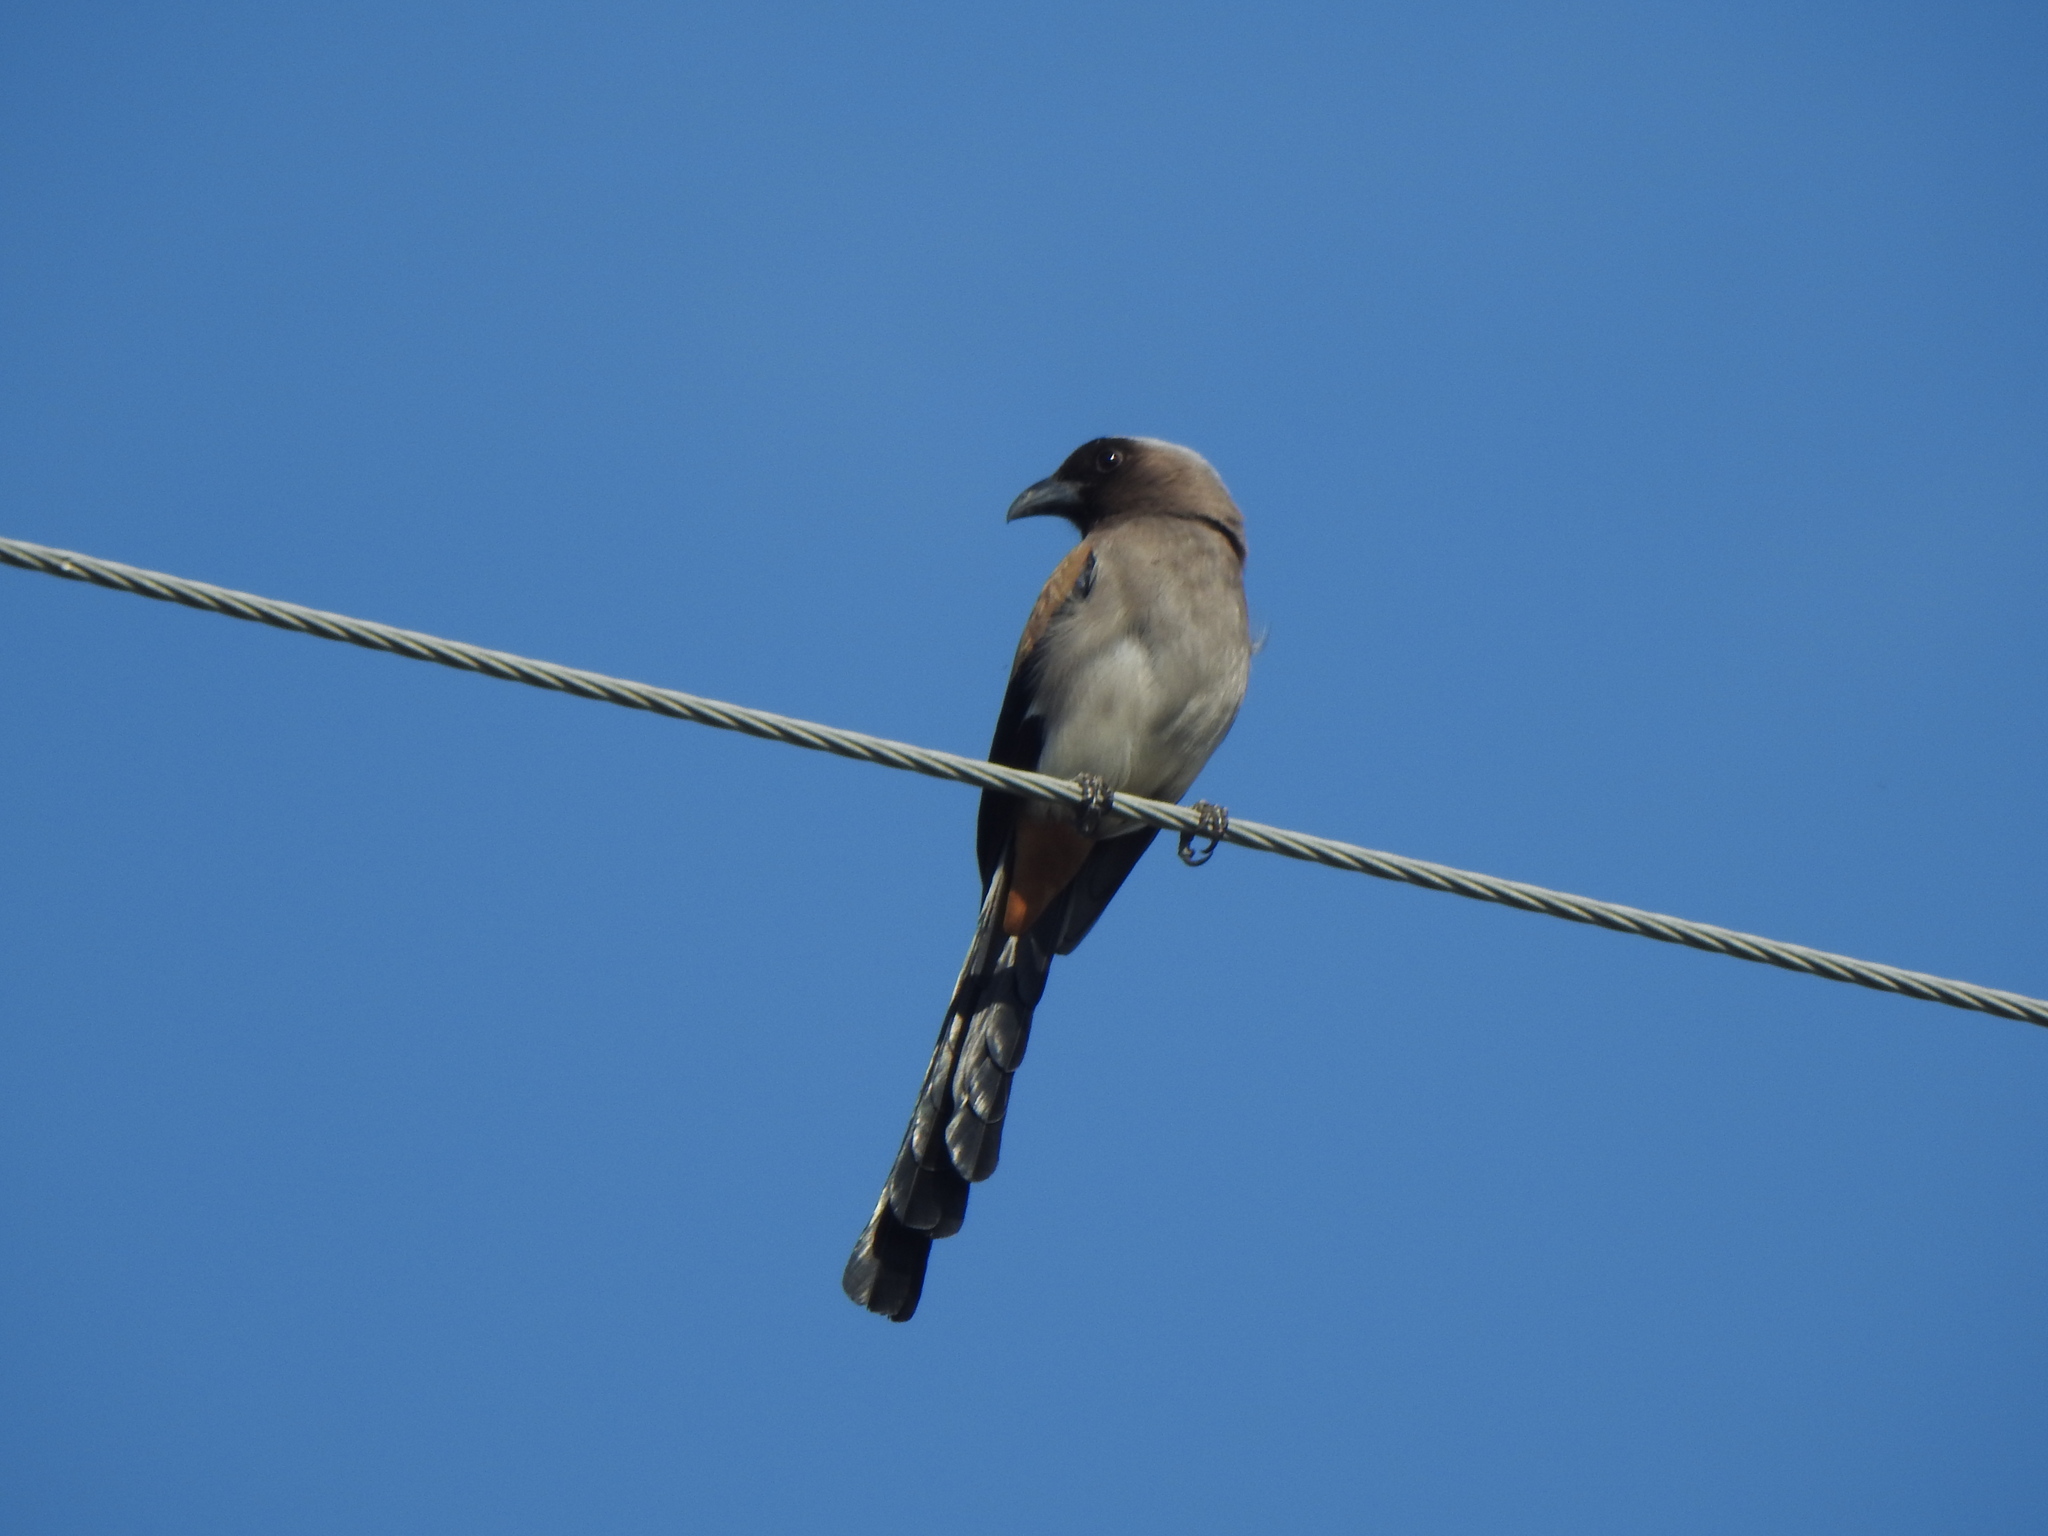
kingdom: Animalia
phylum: Chordata
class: Aves
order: Passeriformes
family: Corvidae
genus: Dendrocitta
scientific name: Dendrocitta formosae
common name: Grey treepie
